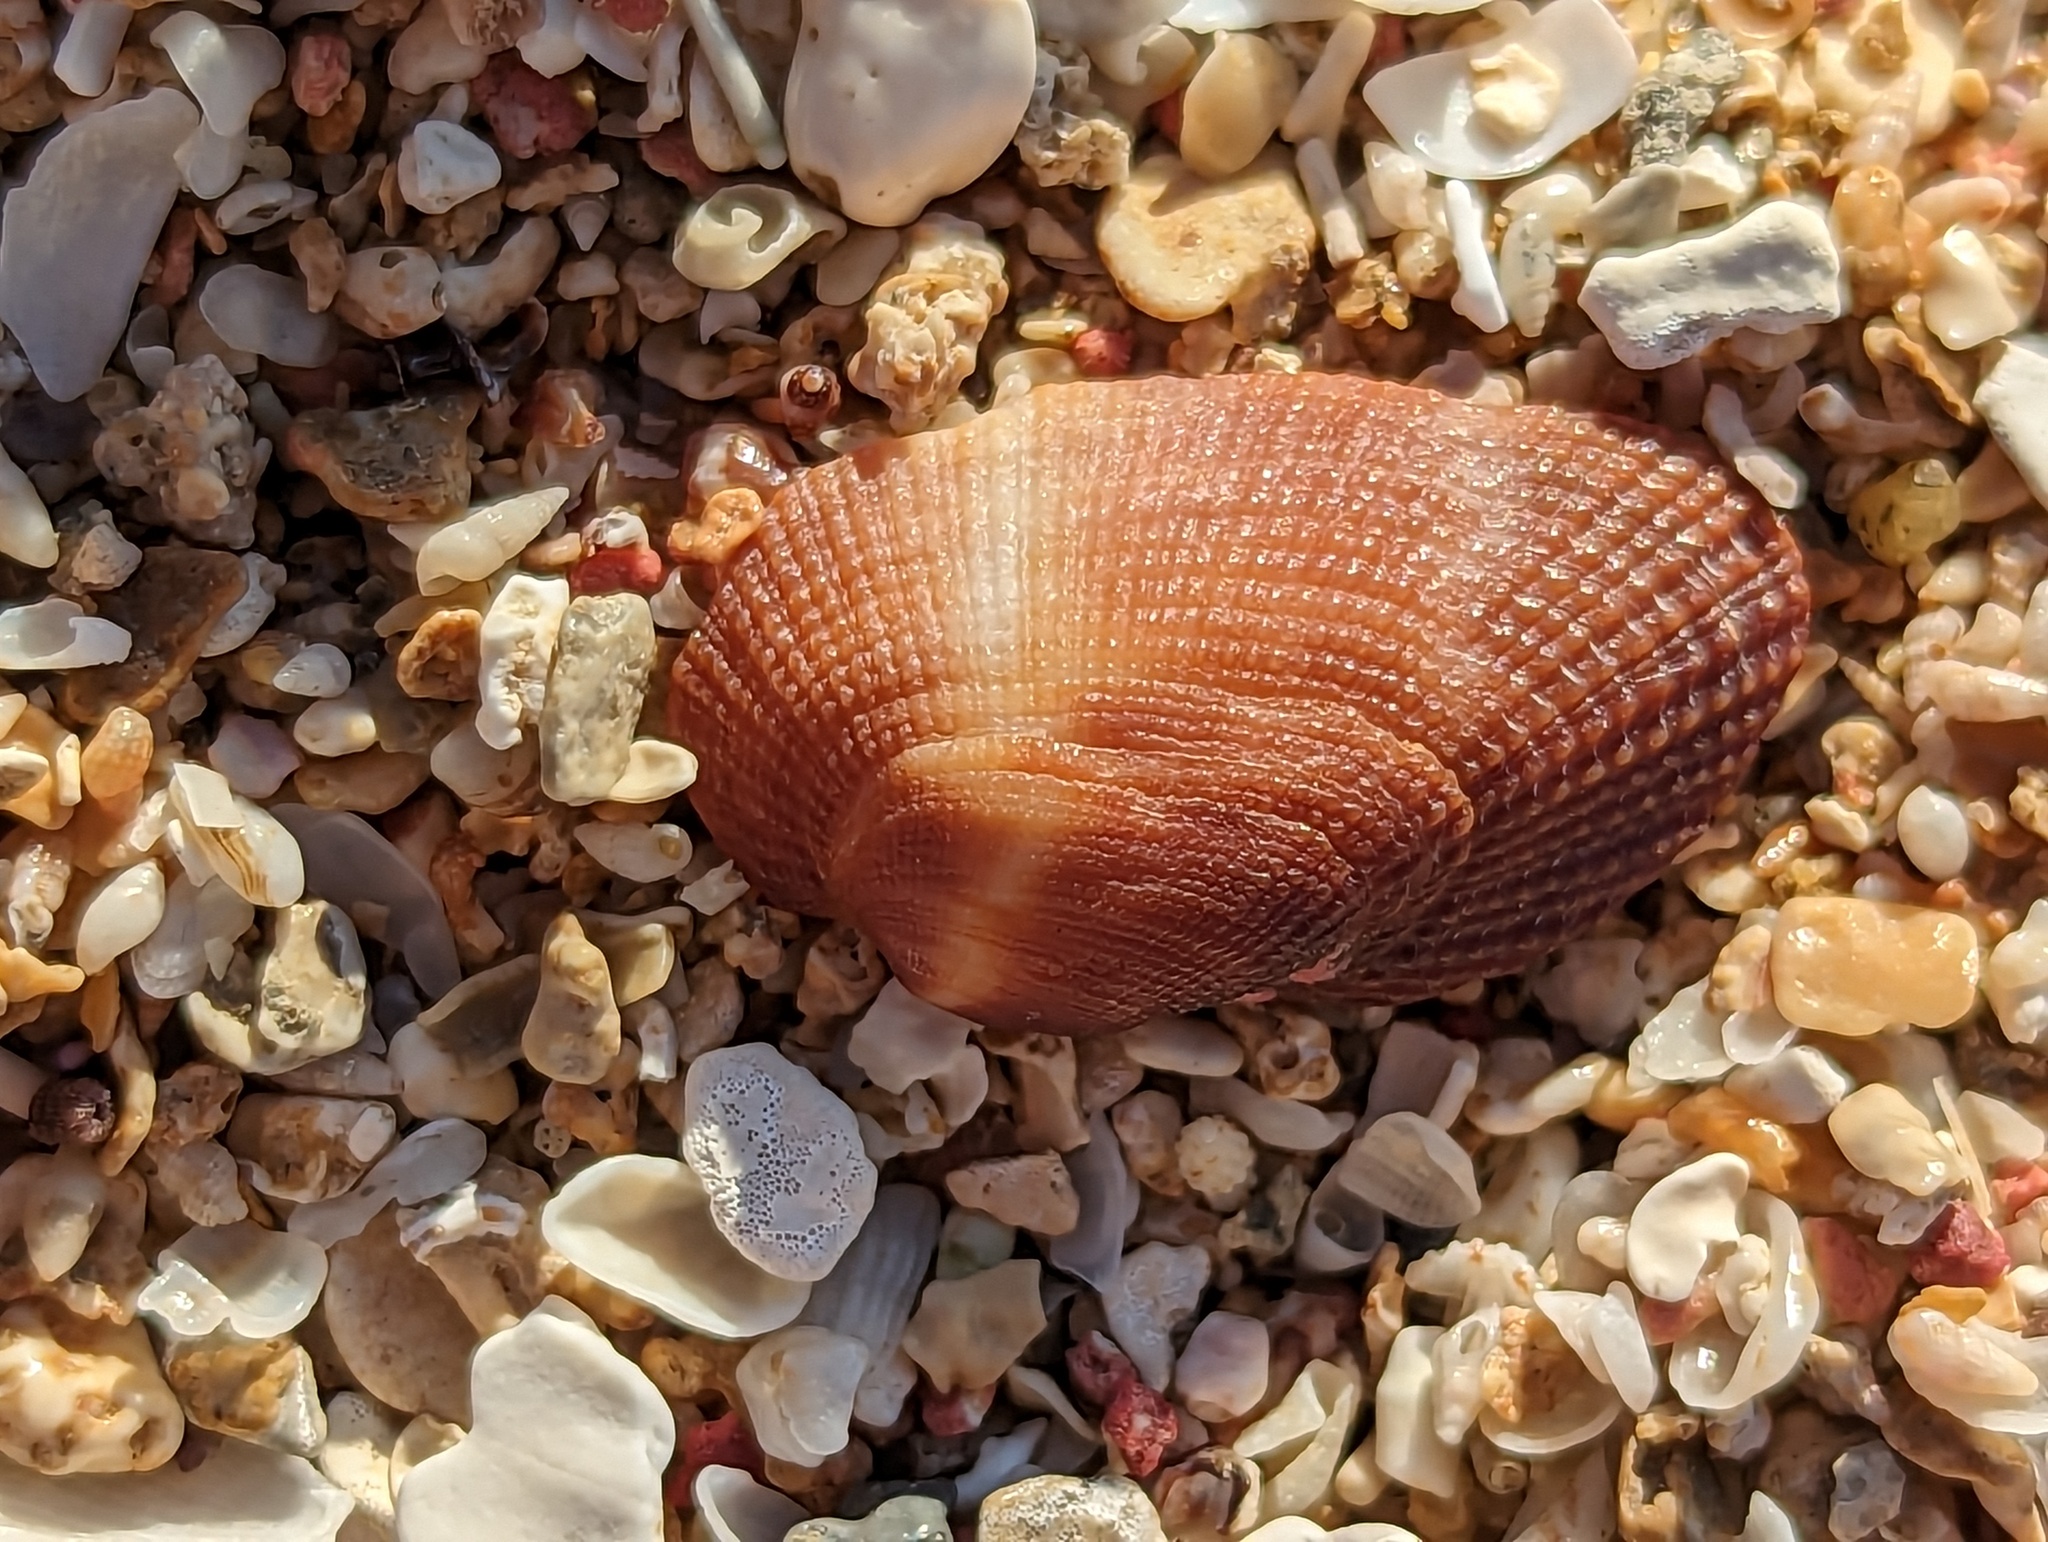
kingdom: Animalia
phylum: Mollusca
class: Bivalvia
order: Arcida
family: Arcidae
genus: Barbatia
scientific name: Barbatia domingensis
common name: White miniature ark
